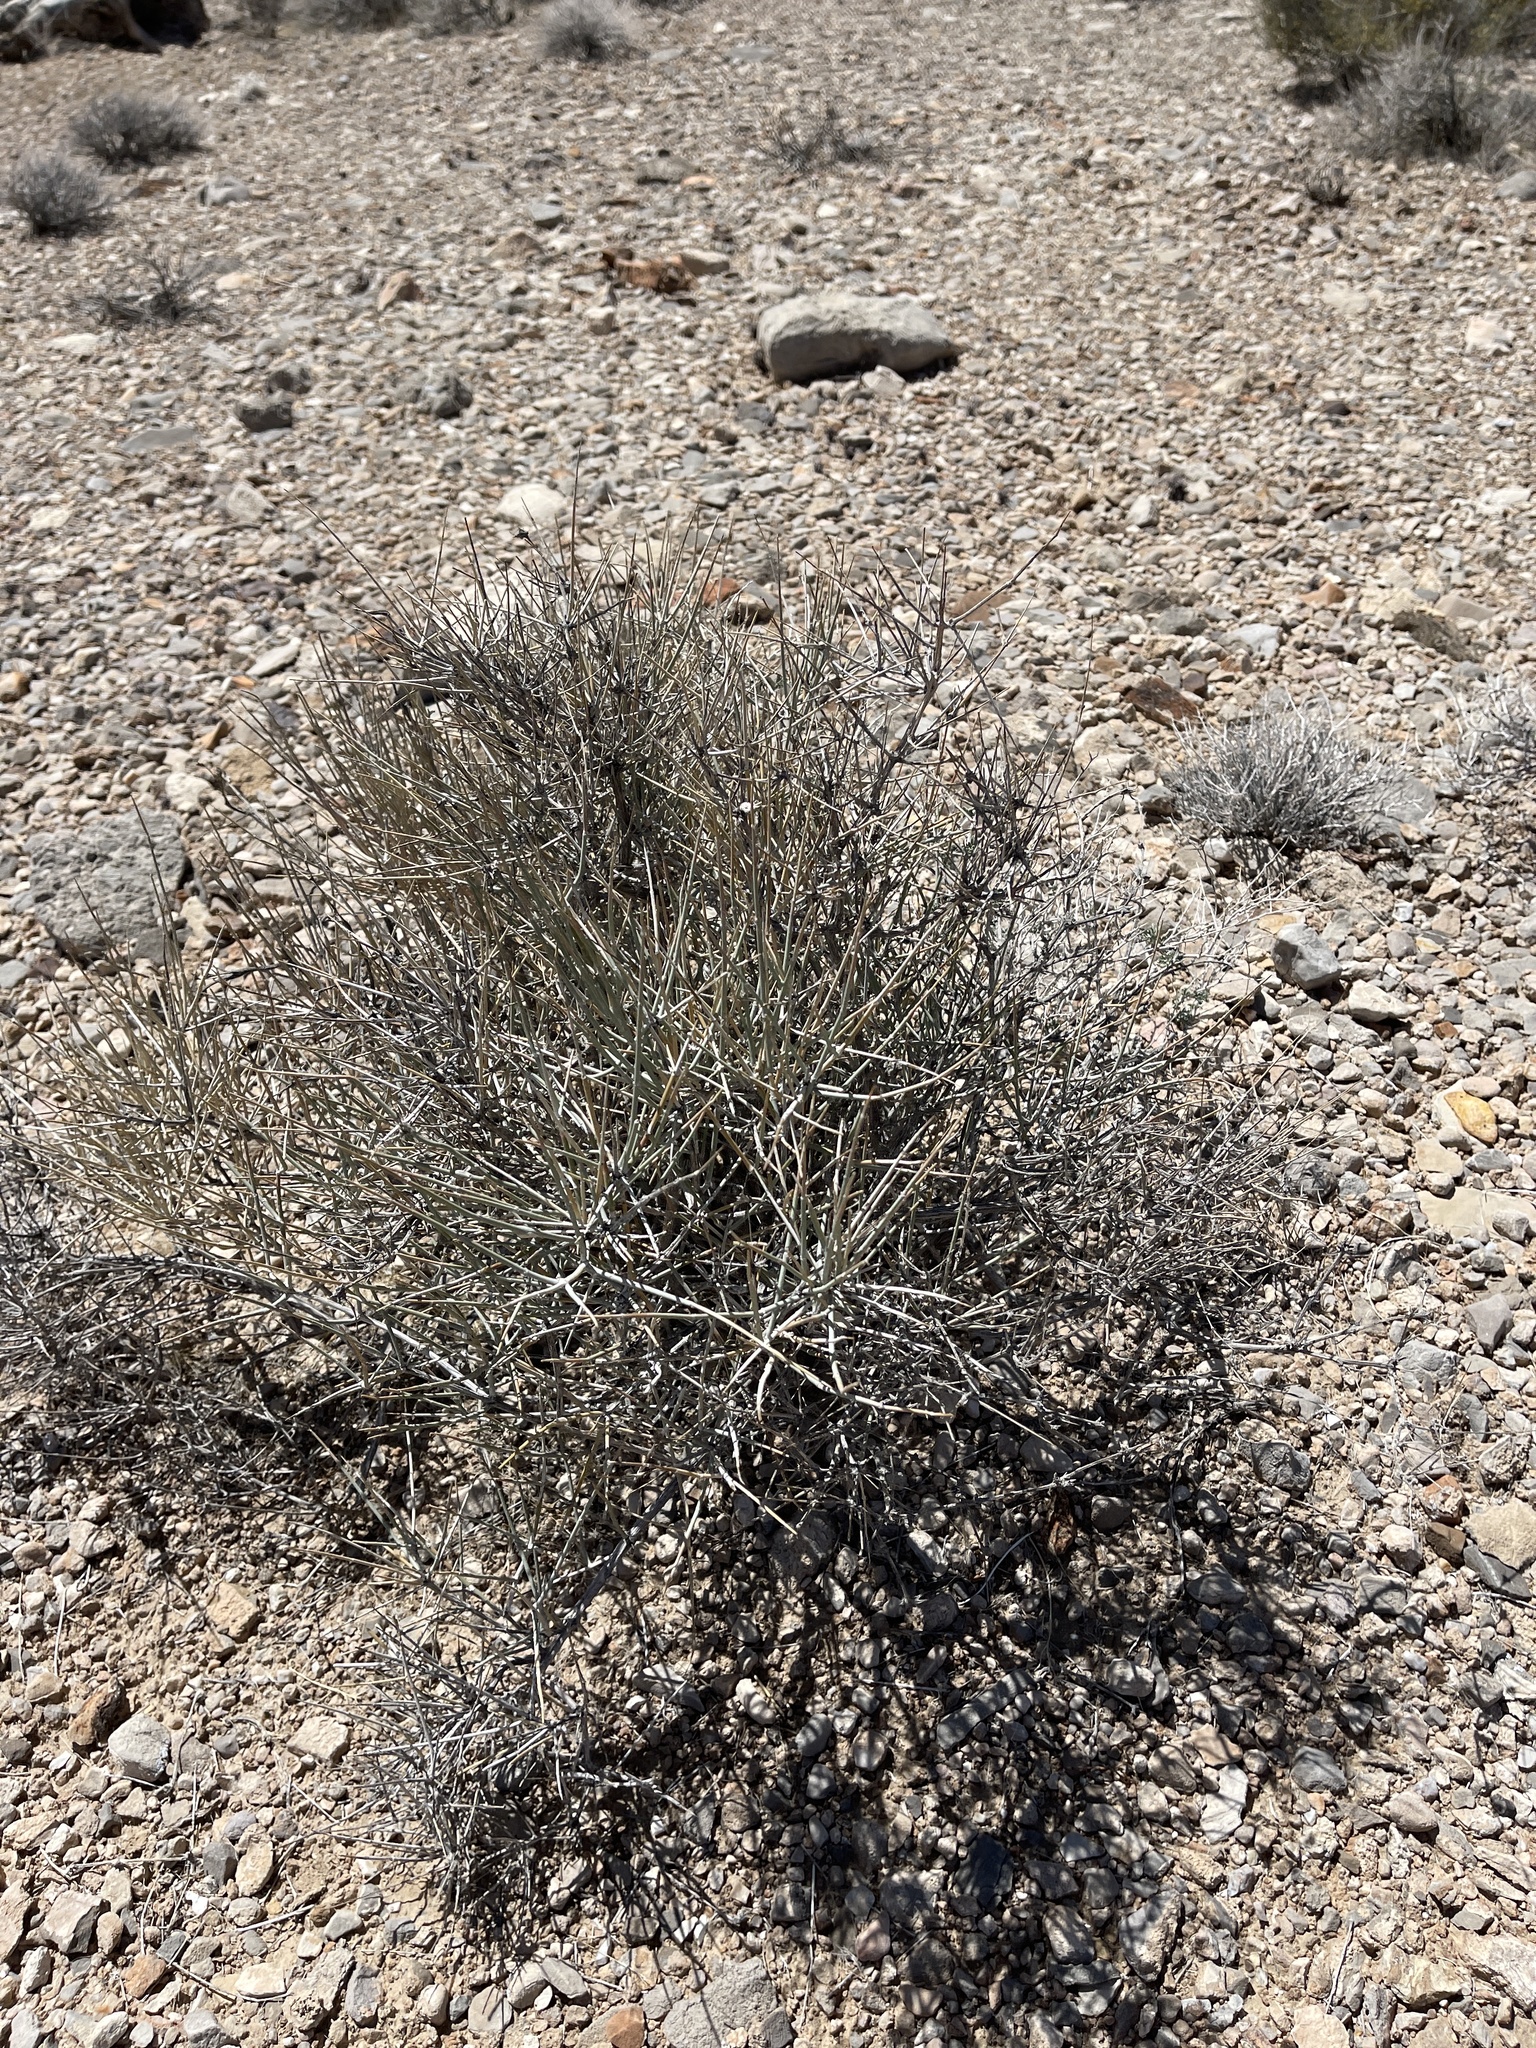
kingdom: Plantae
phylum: Tracheophyta
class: Gnetopsida
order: Ephedrales
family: Ephedraceae
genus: Ephedra
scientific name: Ephedra nevadensis
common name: Gray ephedra
